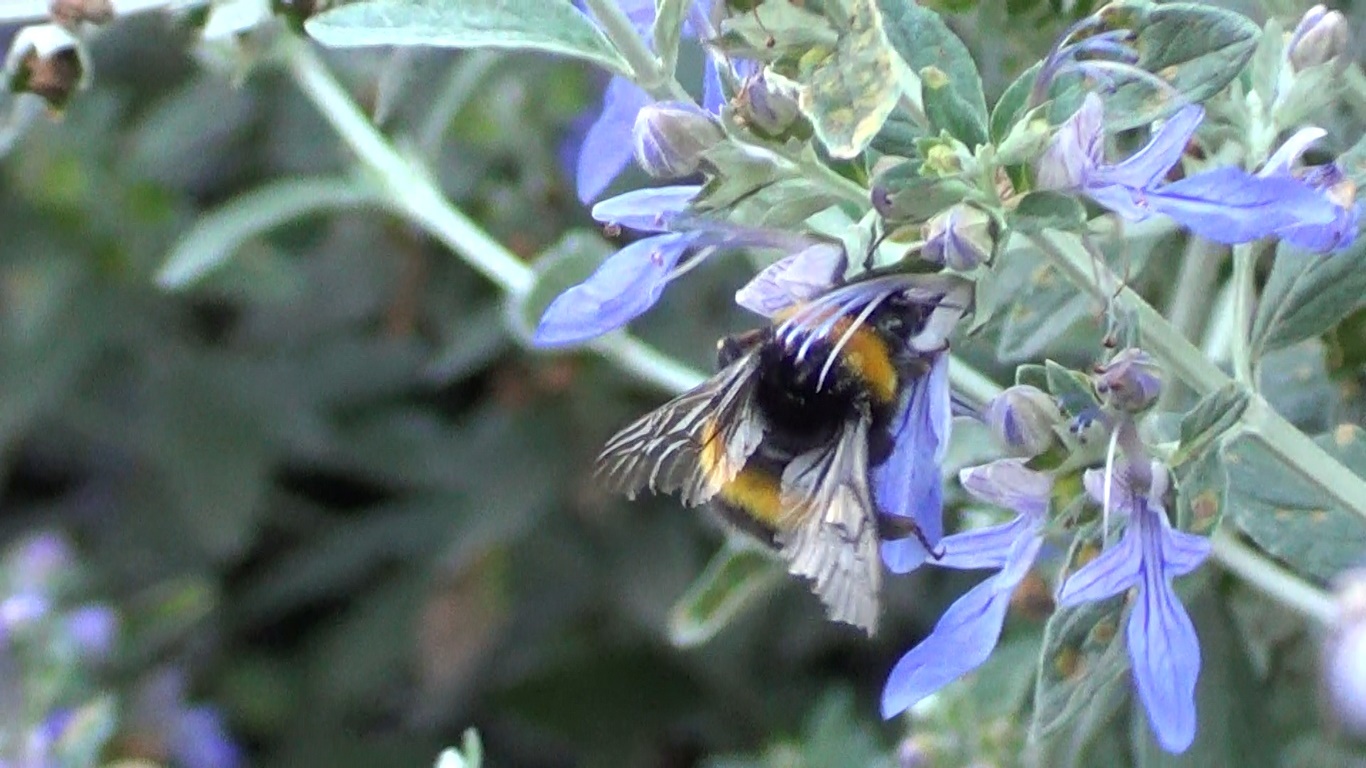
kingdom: Animalia
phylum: Arthropoda
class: Insecta
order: Hymenoptera
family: Apidae
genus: Bombus
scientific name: Bombus terrestris
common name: Buff-tailed bumblebee
